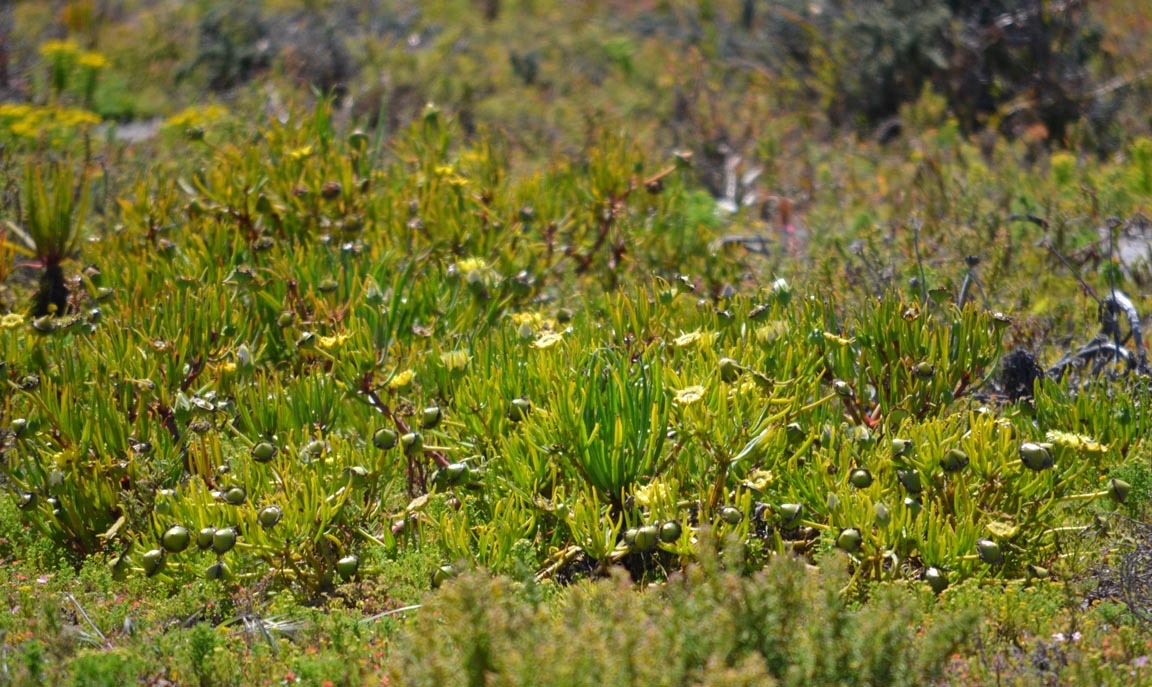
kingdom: Plantae
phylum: Tracheophyta
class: Magnoliopsida
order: Caryophyllales
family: Aizoaceae
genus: Conicosia
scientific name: Conicosia pugioniformis
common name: Narrow-leaved iceplant
